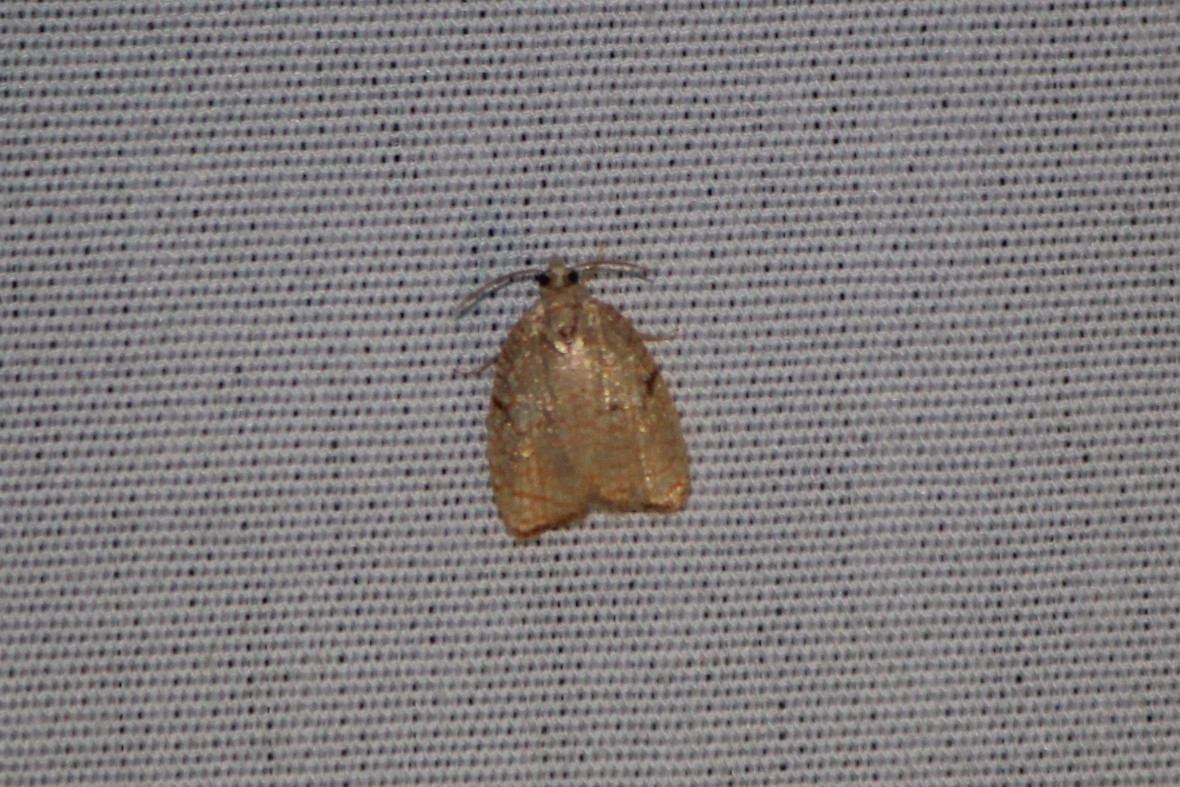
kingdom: Animalia
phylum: Arthropoda
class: Insecta
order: Lepidoptera
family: Tortricidae
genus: Acleris
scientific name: Acleris forsskaleana
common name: Maple button
